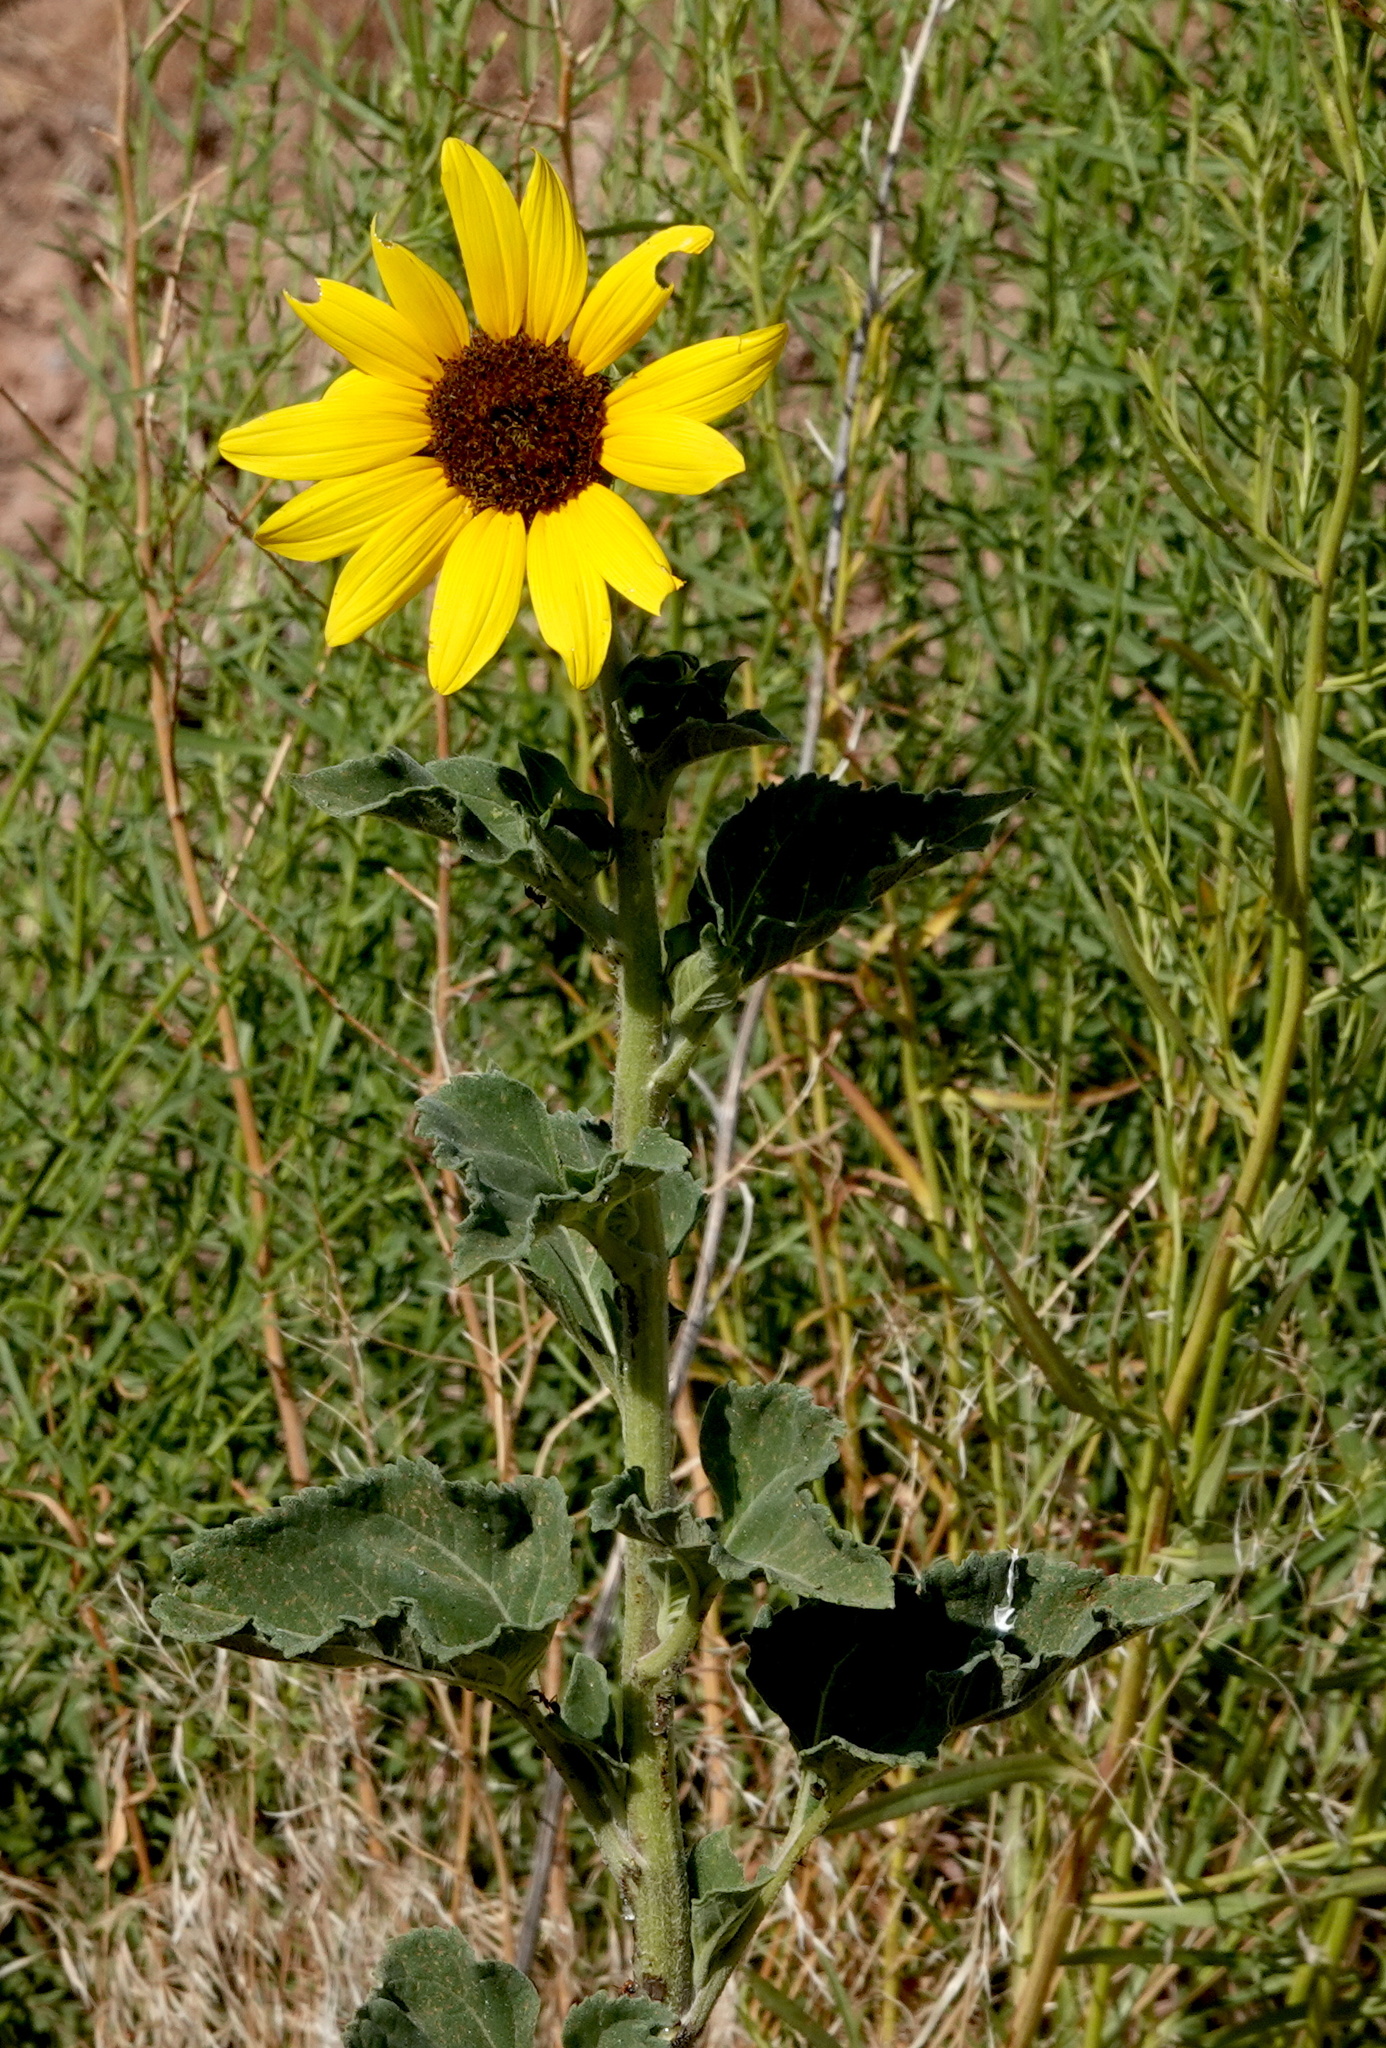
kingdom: Plantae
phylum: Tracheophyta
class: Magnoliopsida
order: Asterales
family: Asteraceae
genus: Helianthus
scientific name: Helianthus annuus
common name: Sunflower
